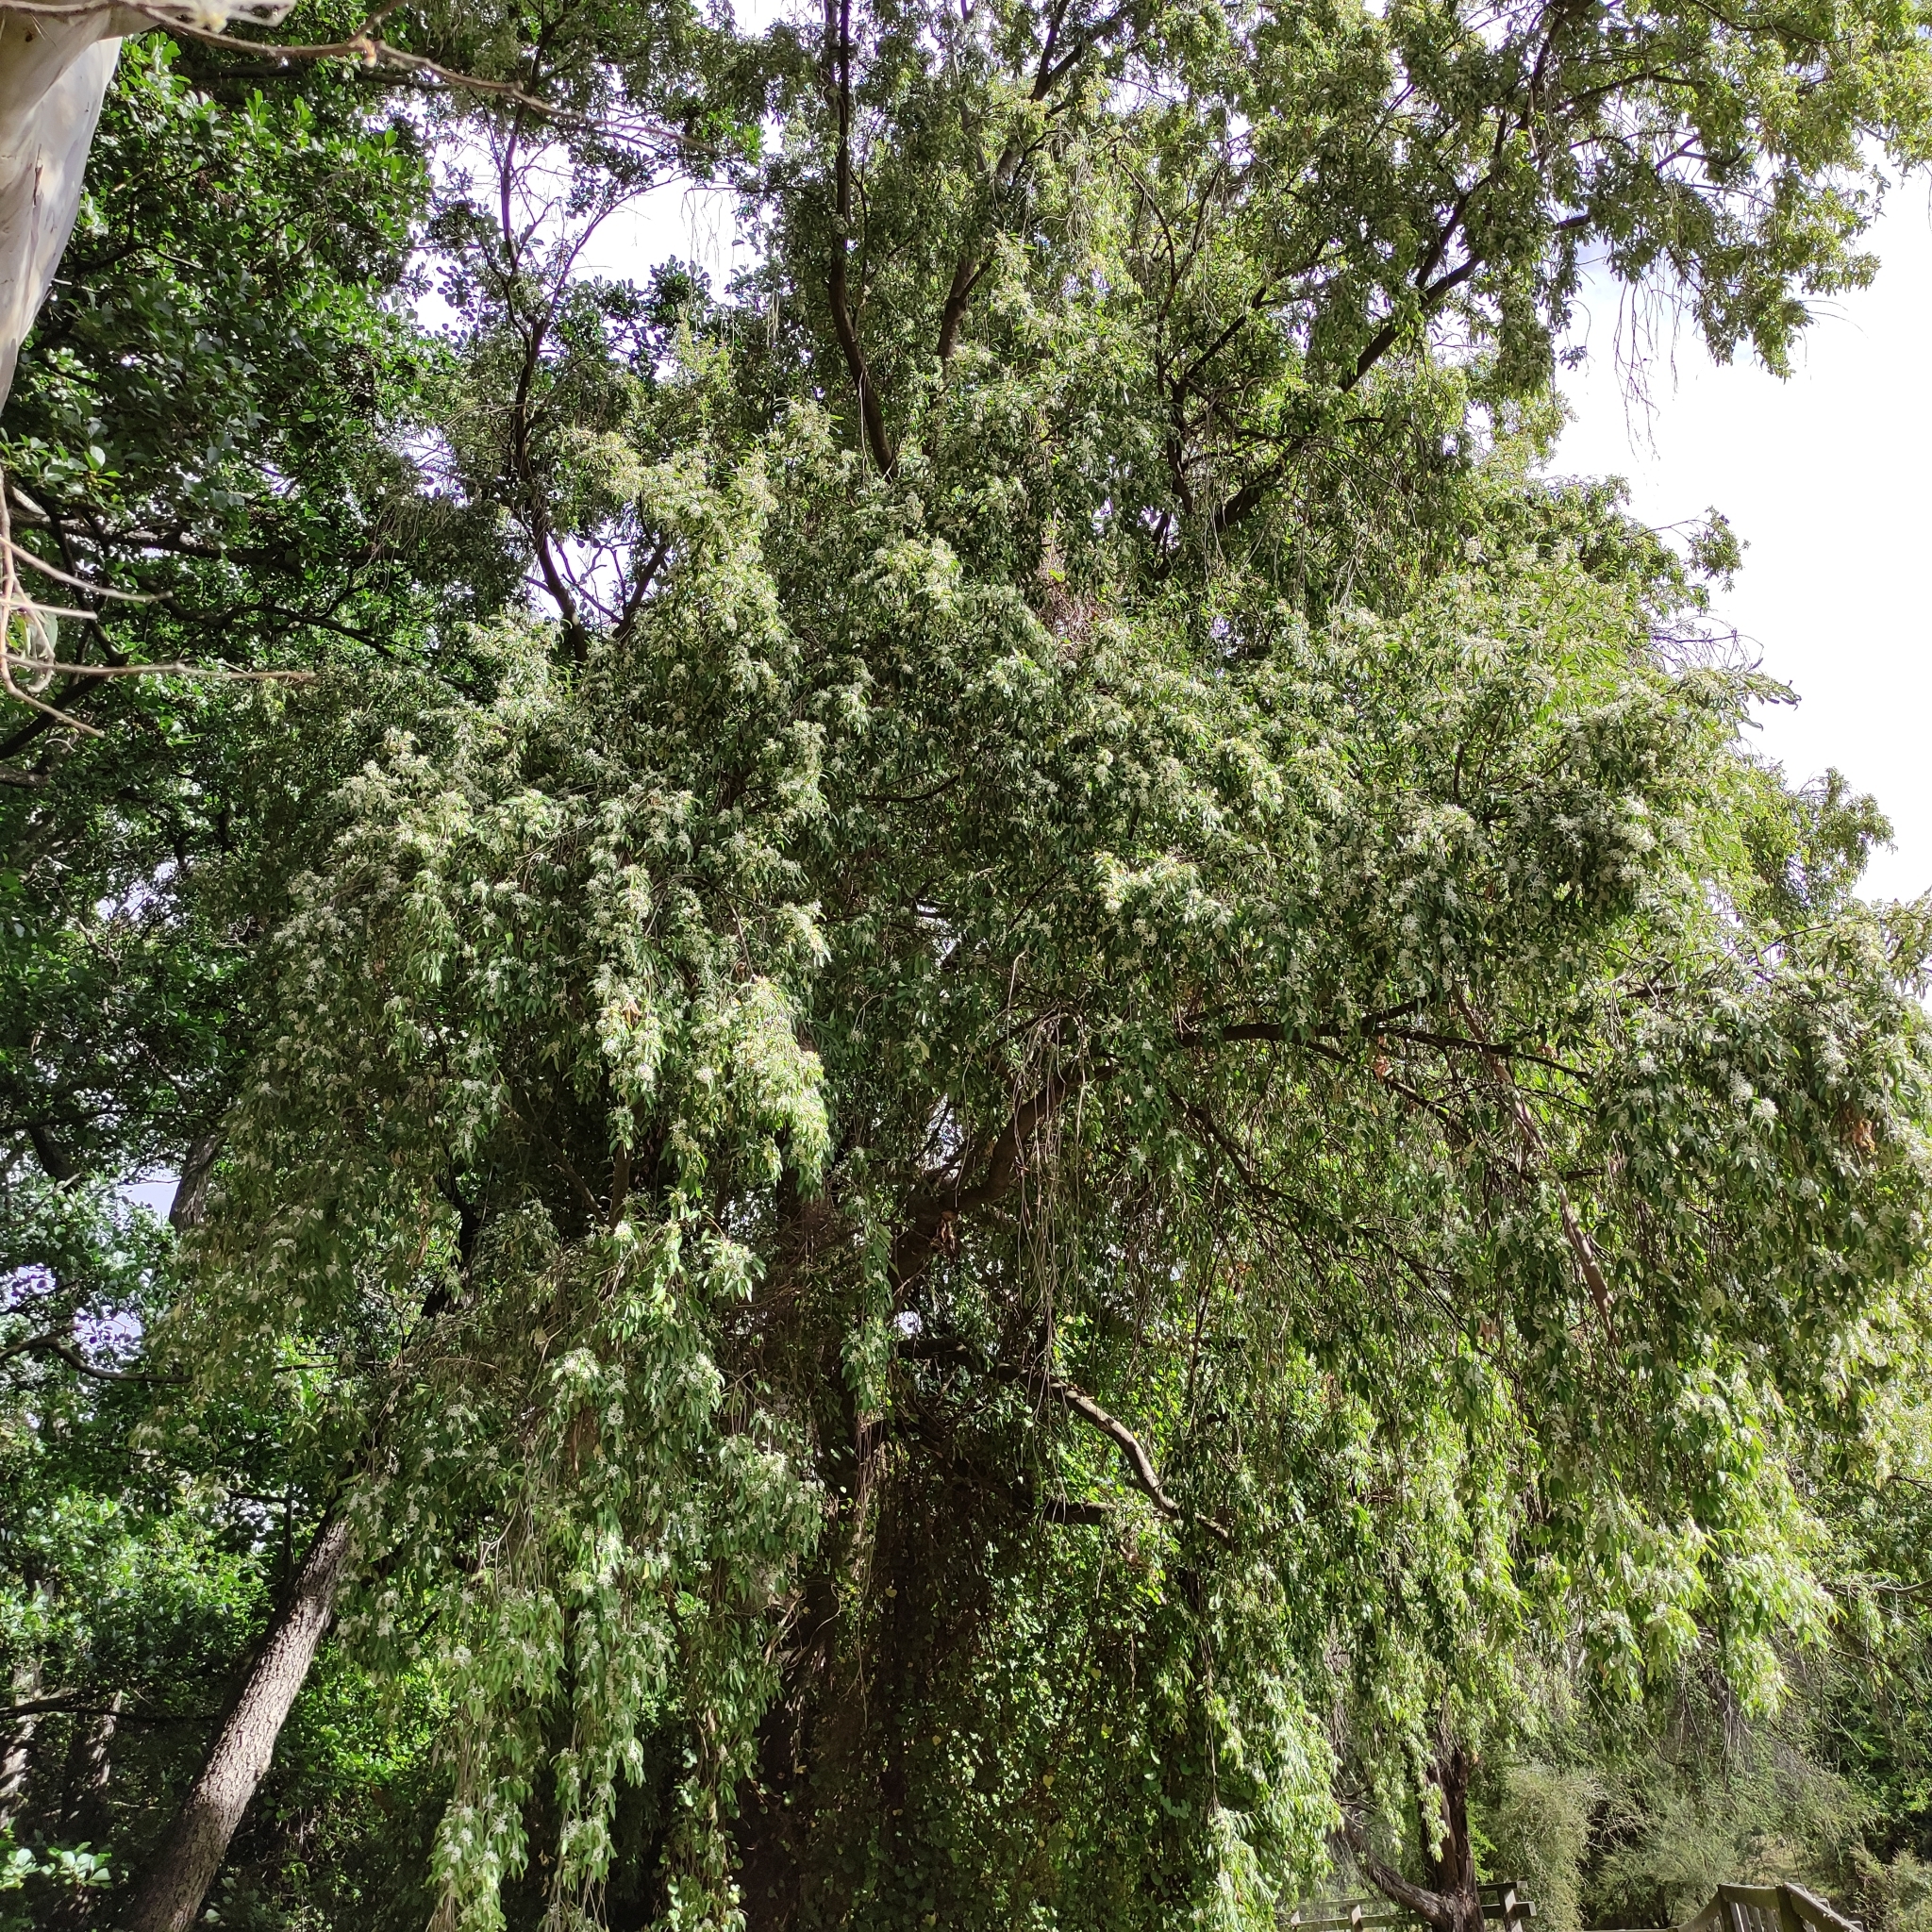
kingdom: Plantae
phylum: Tracheophyta
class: Magnoliopsida
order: Malvales
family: Malvaceae
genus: Hoheria
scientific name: Hoheria angustifolia
